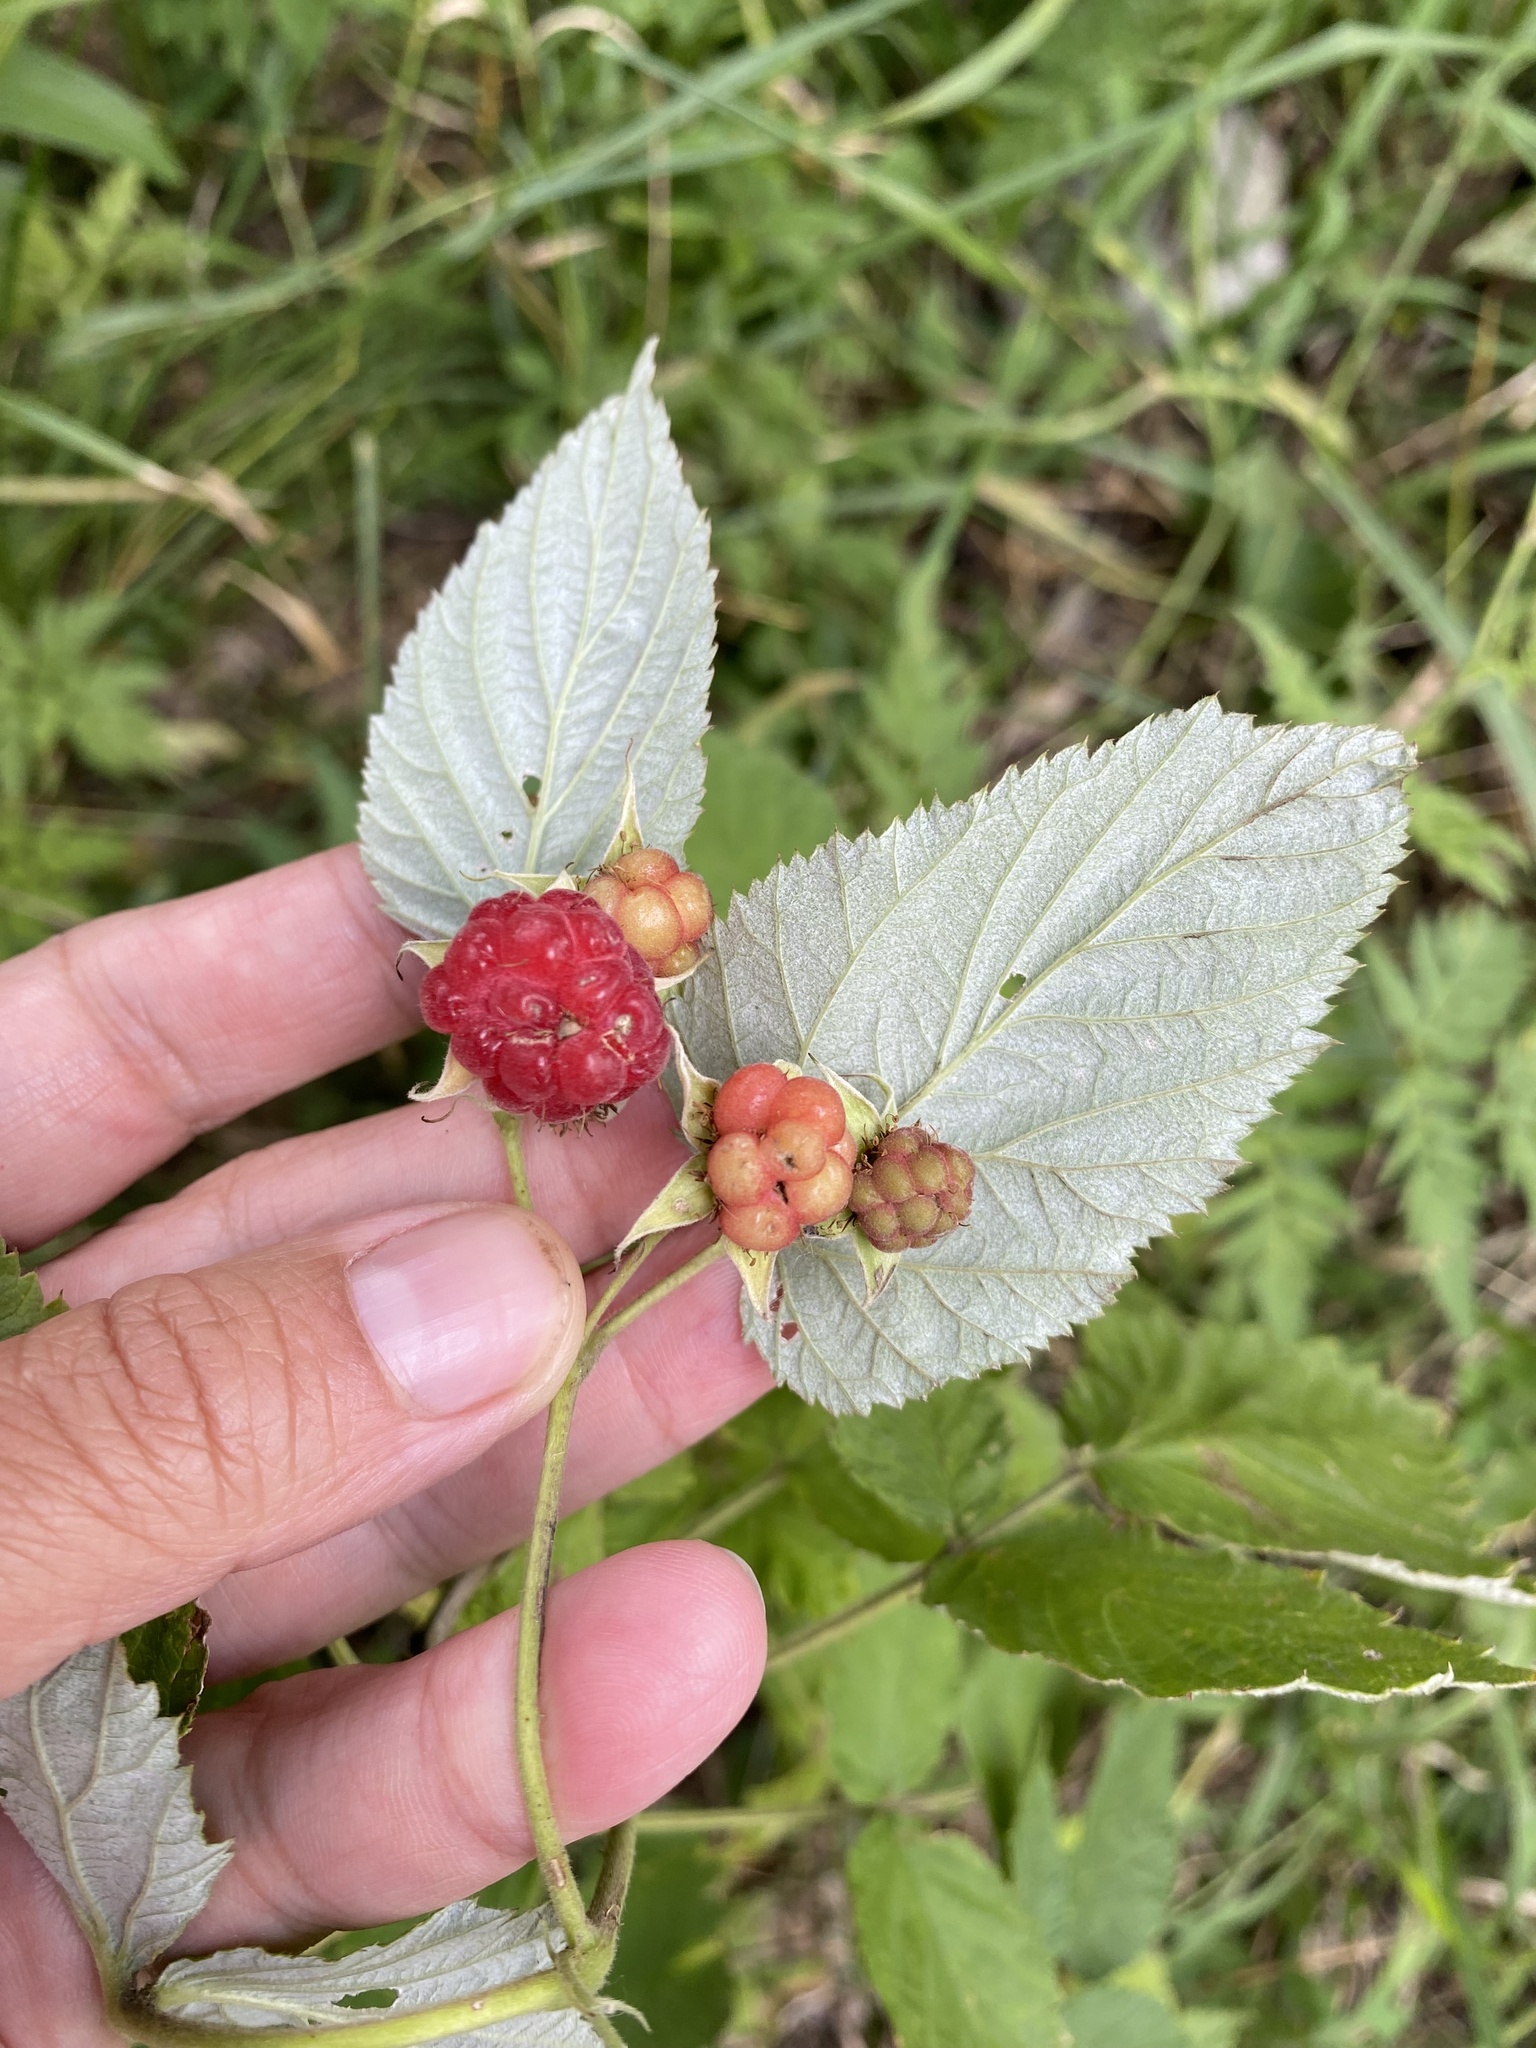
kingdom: Plantae
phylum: Tracheophyta
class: Magnoliopsida
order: Rosales
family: Rosaceae
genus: Rubus
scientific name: Rubus idaeus
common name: Raspberry
